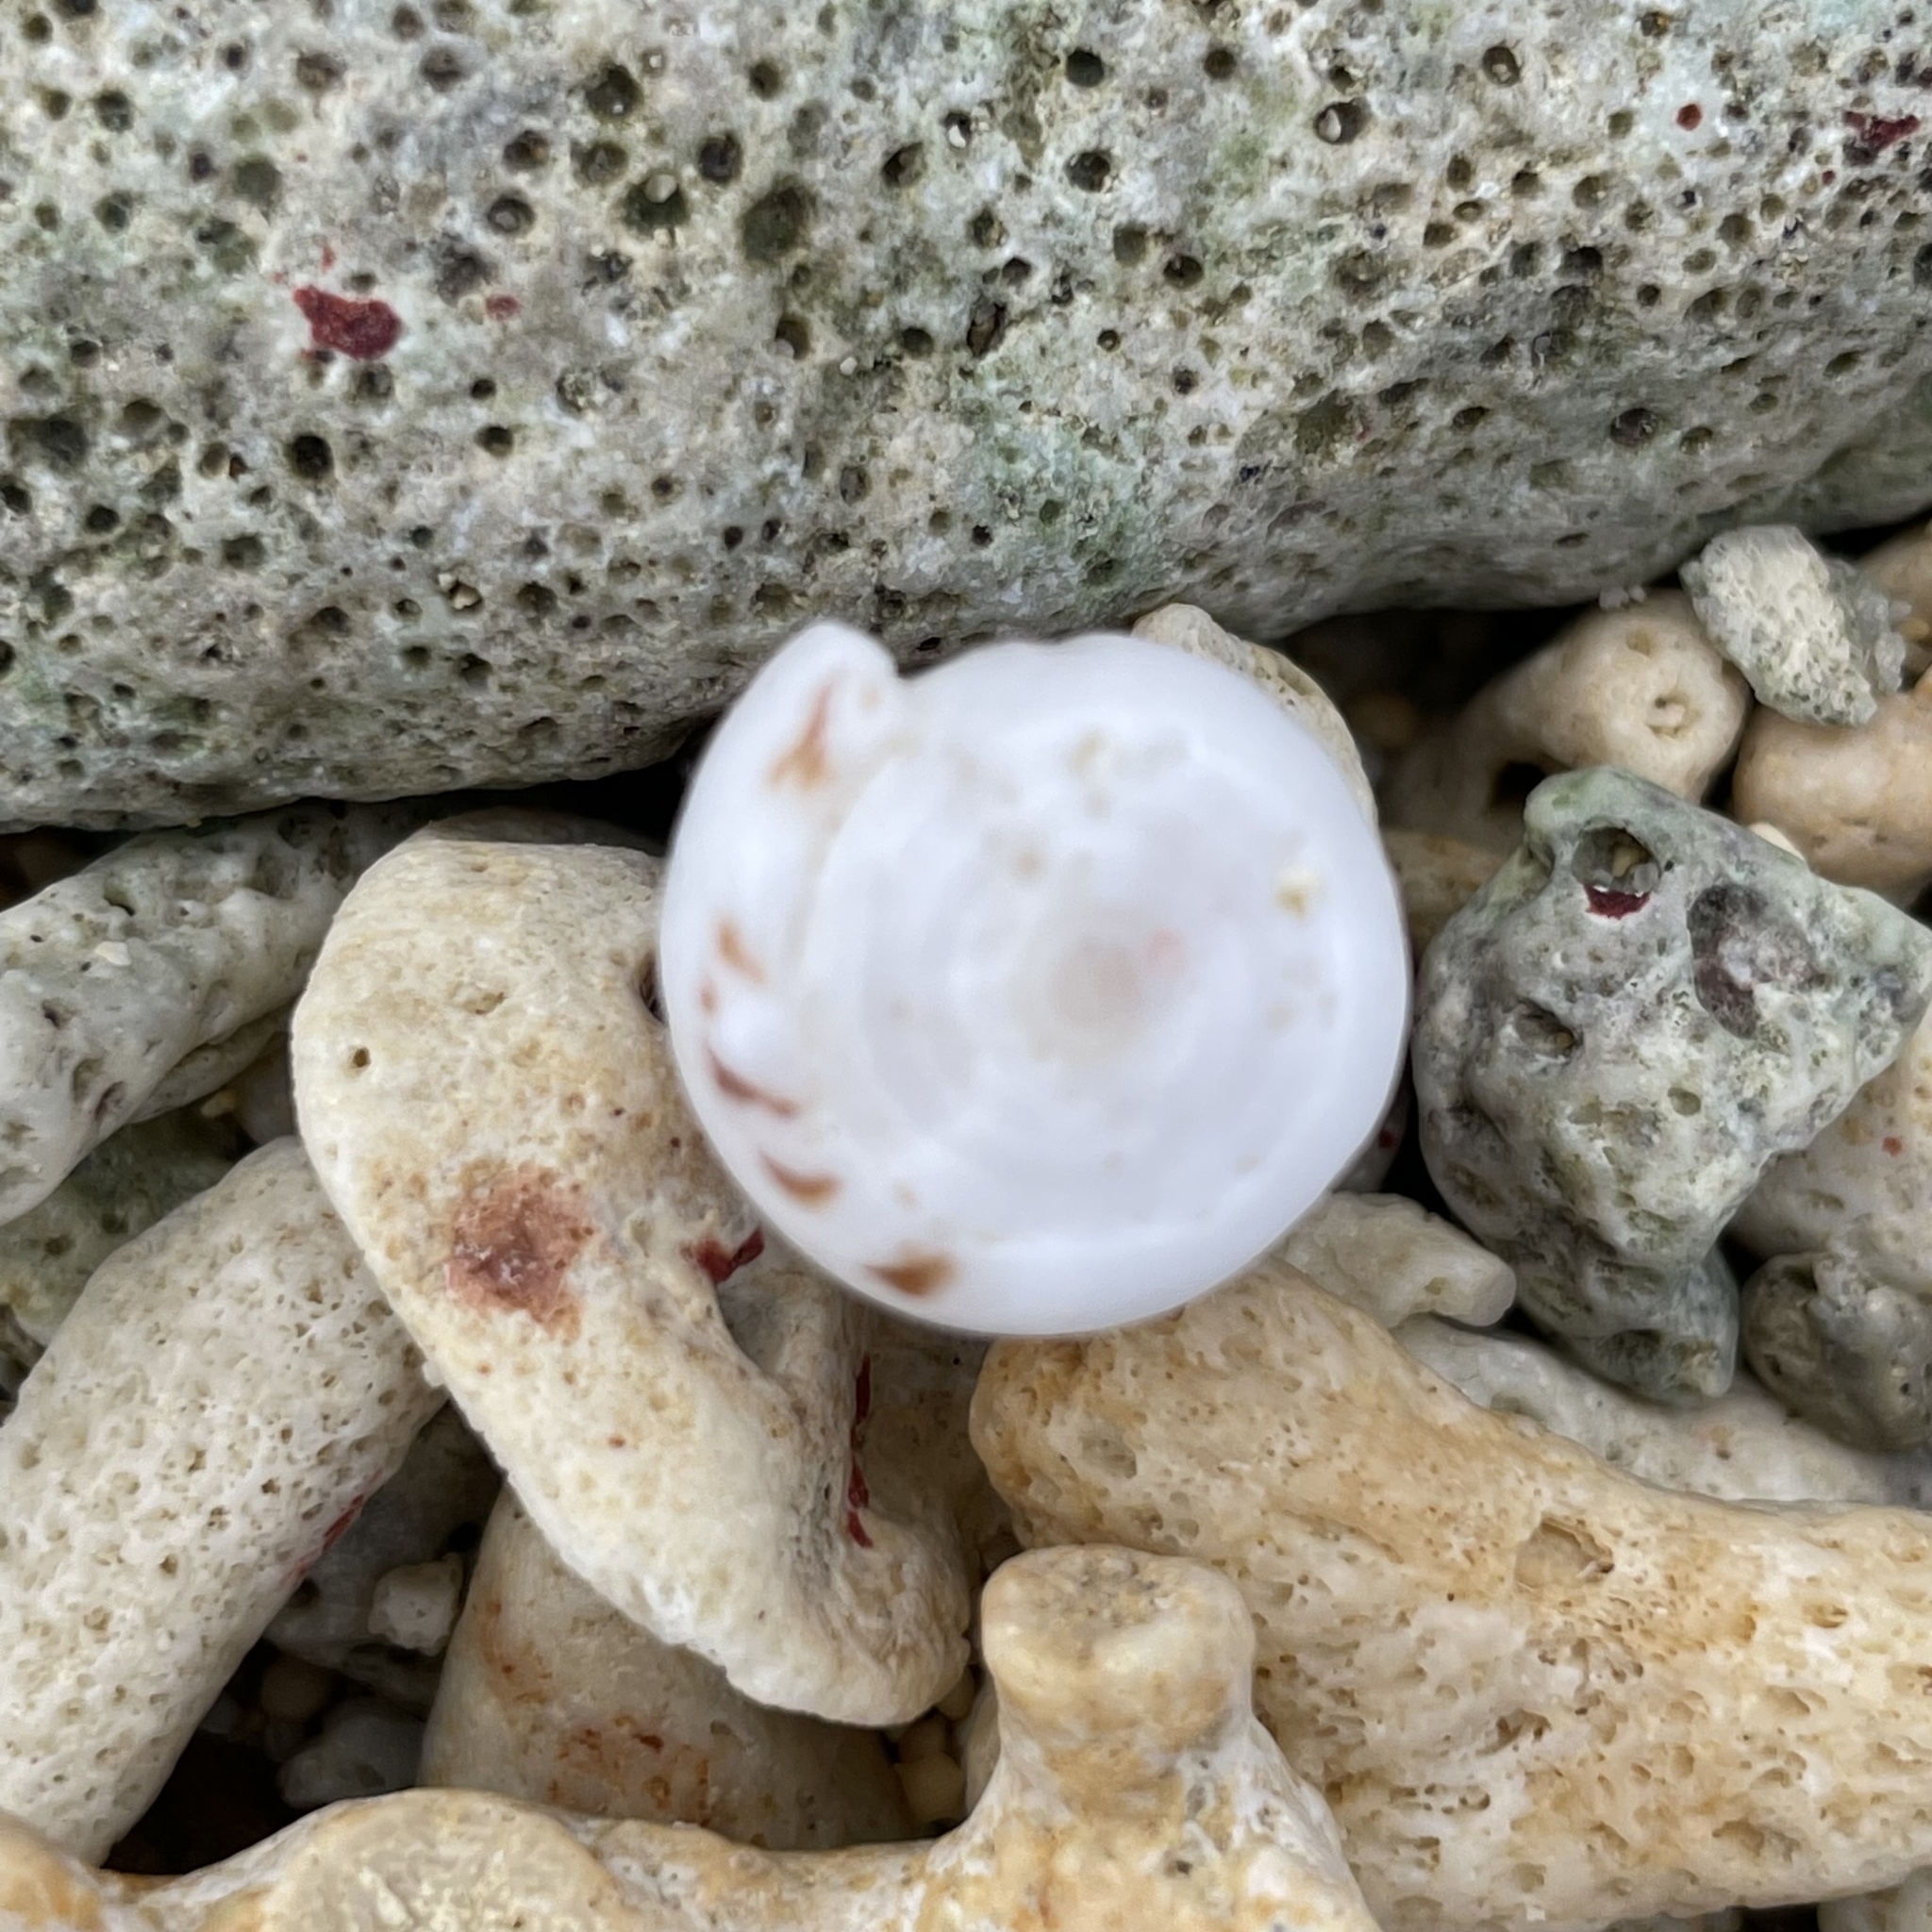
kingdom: Animalia
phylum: Mollusca
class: Gastropoda
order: Neogastropoda
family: Conidae
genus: Conus
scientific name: Conus sponsalis
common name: Sponsal cone
